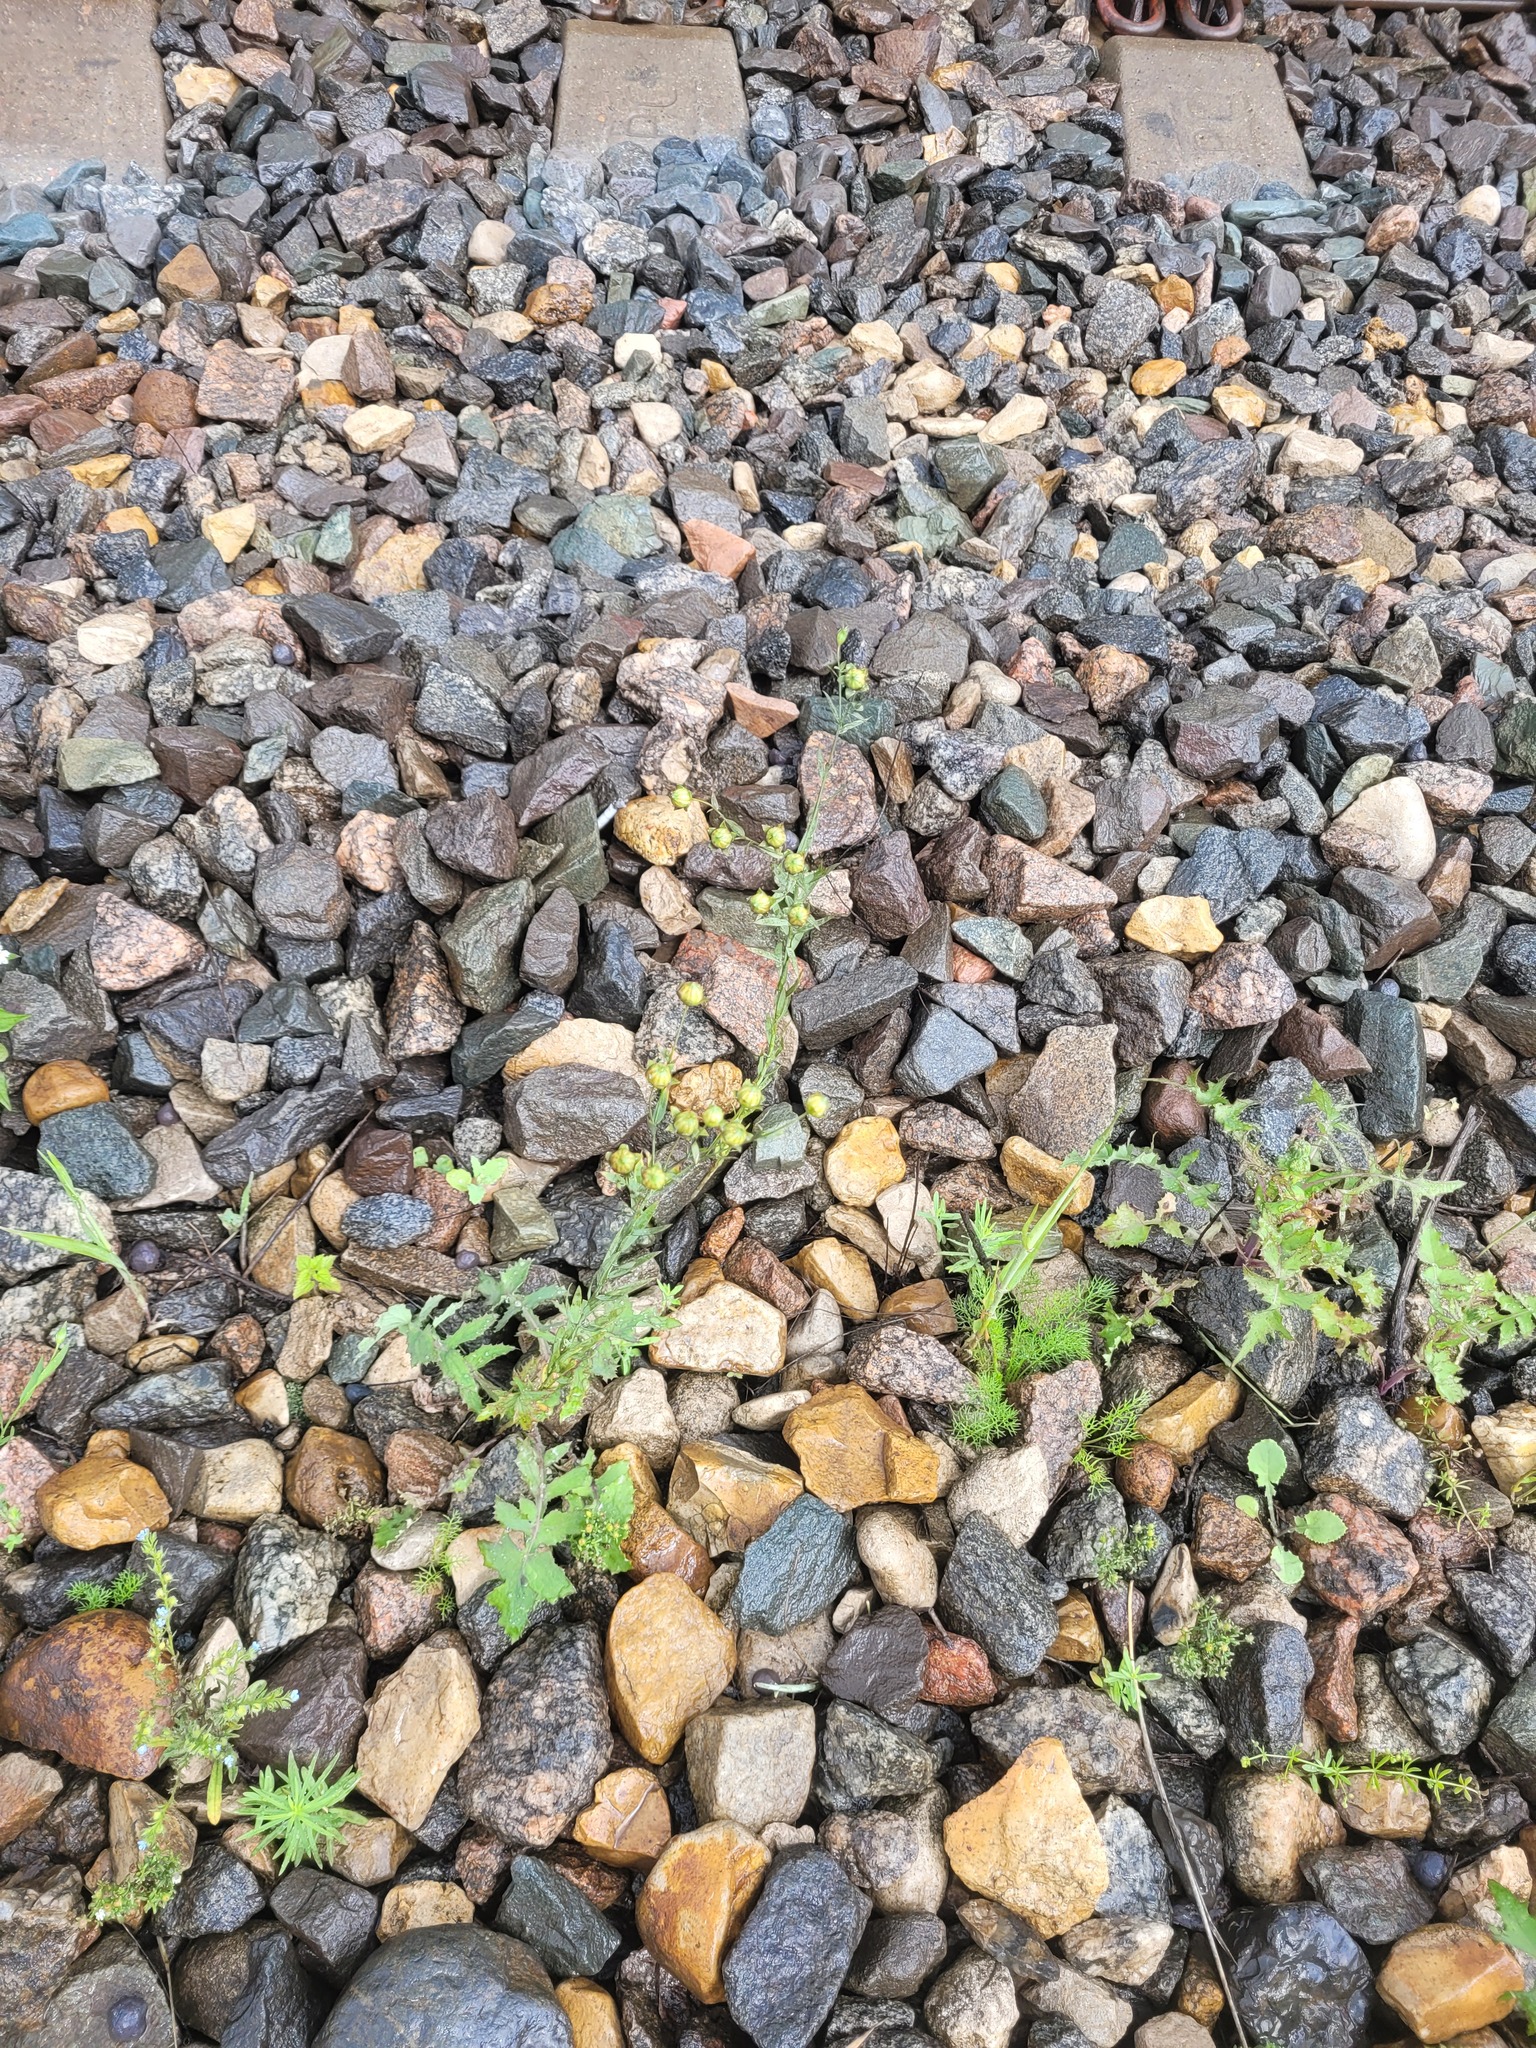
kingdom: Plantae
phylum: Tracheophyta
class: Magnoliopsida
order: Malpighiales
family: Linaceae
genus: Linum
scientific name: Linum usitatissimum
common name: Flax
